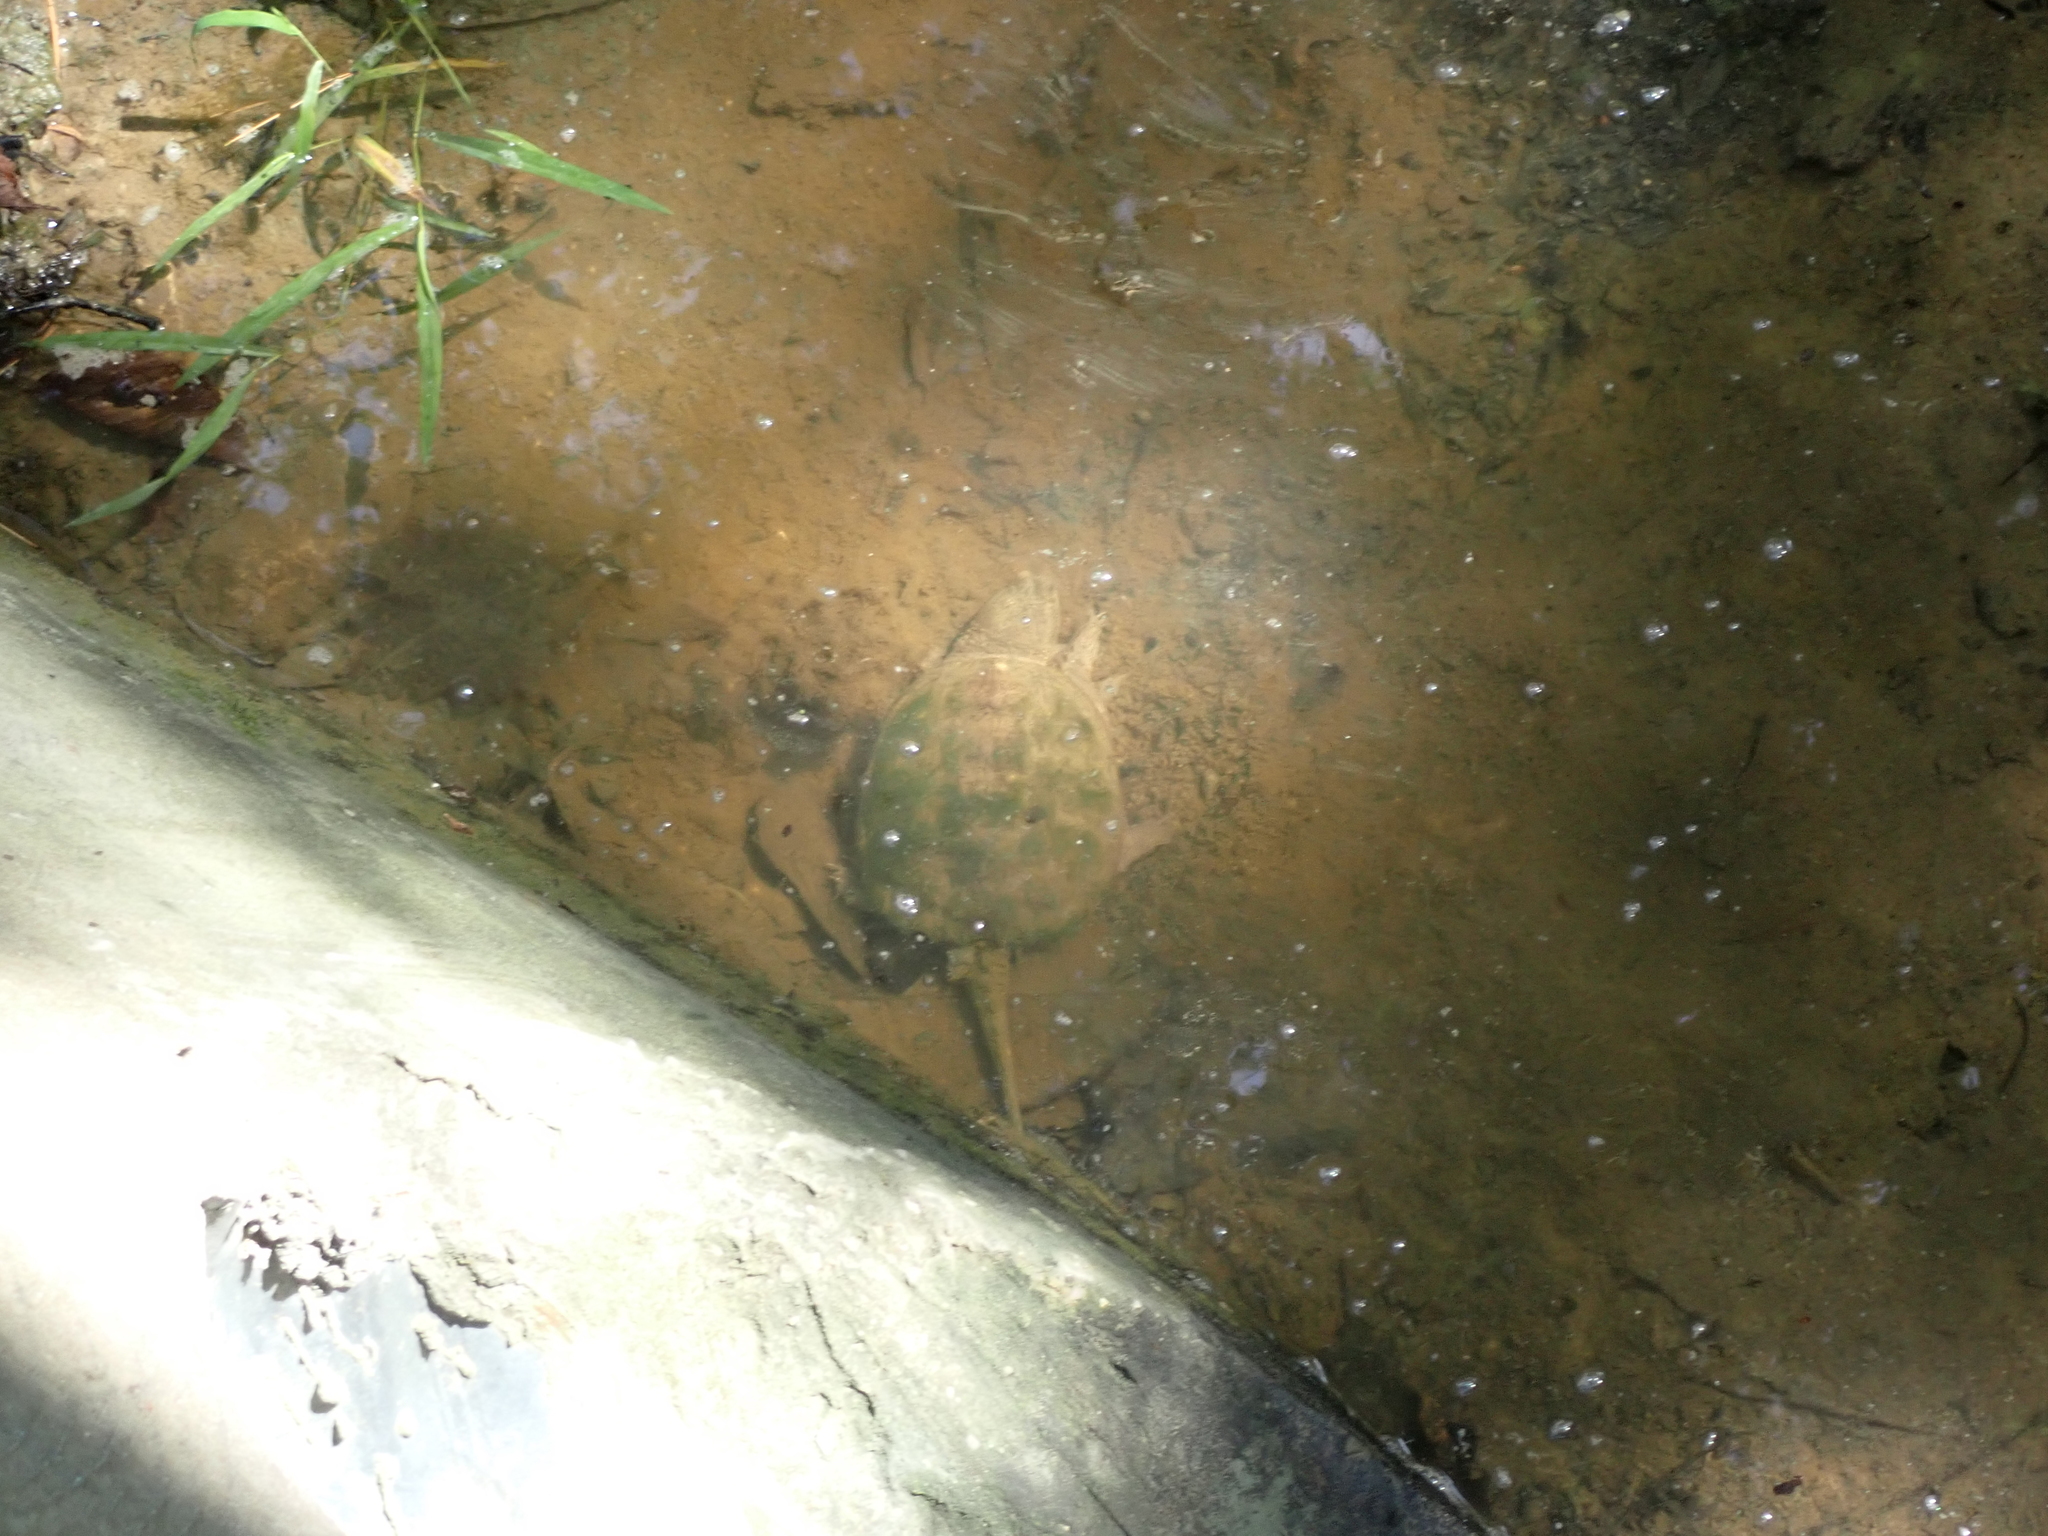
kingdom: Animalia
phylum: Chordata
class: Testudines
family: Chelydridae
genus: Chelydra
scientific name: Chelydra serpentina
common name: Common snapping turtle
